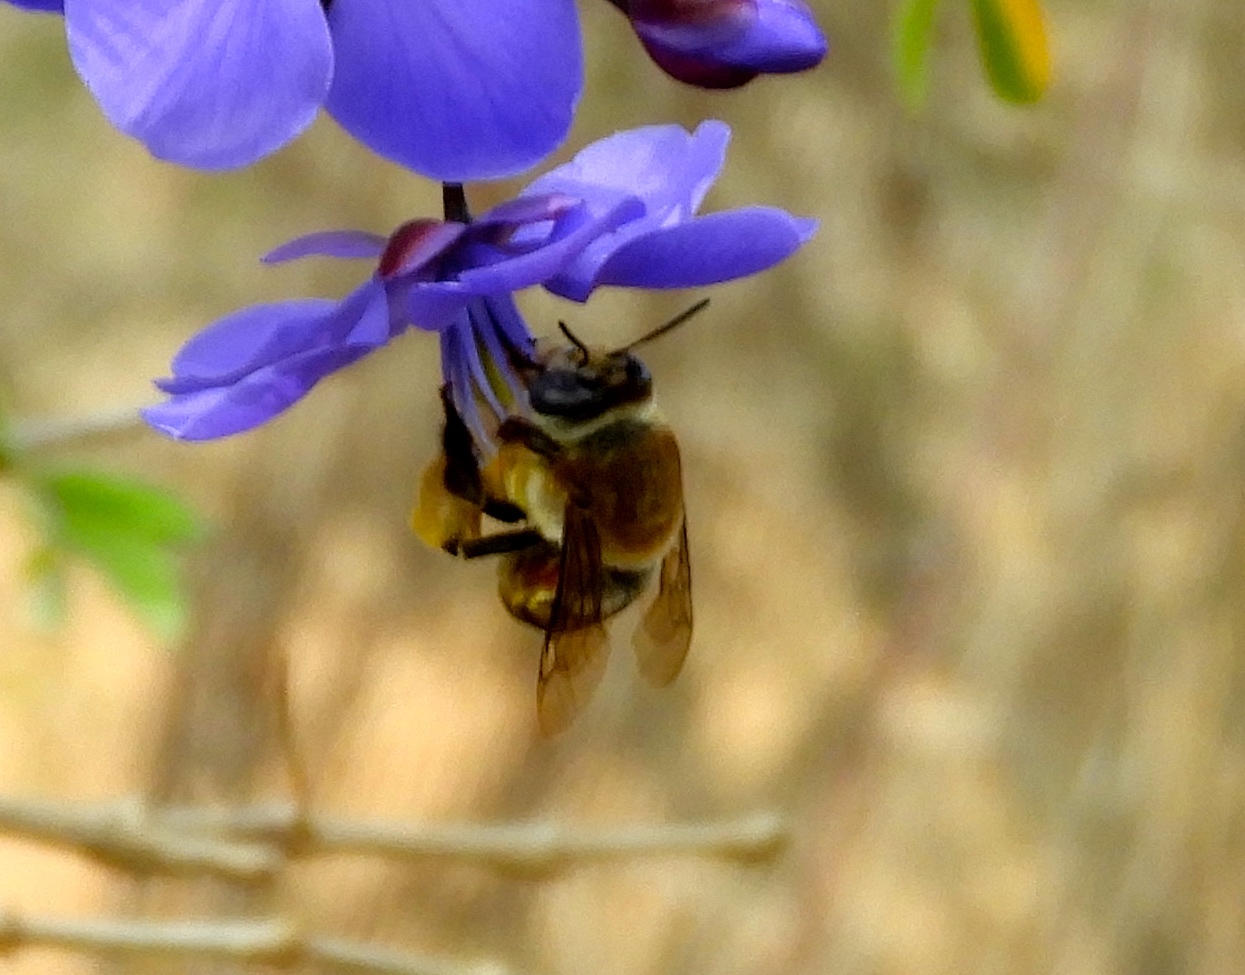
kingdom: Animalia
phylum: Arthropoda
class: Insecta
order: Hymenoptera
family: Apidae
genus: Centris
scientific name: Centris
